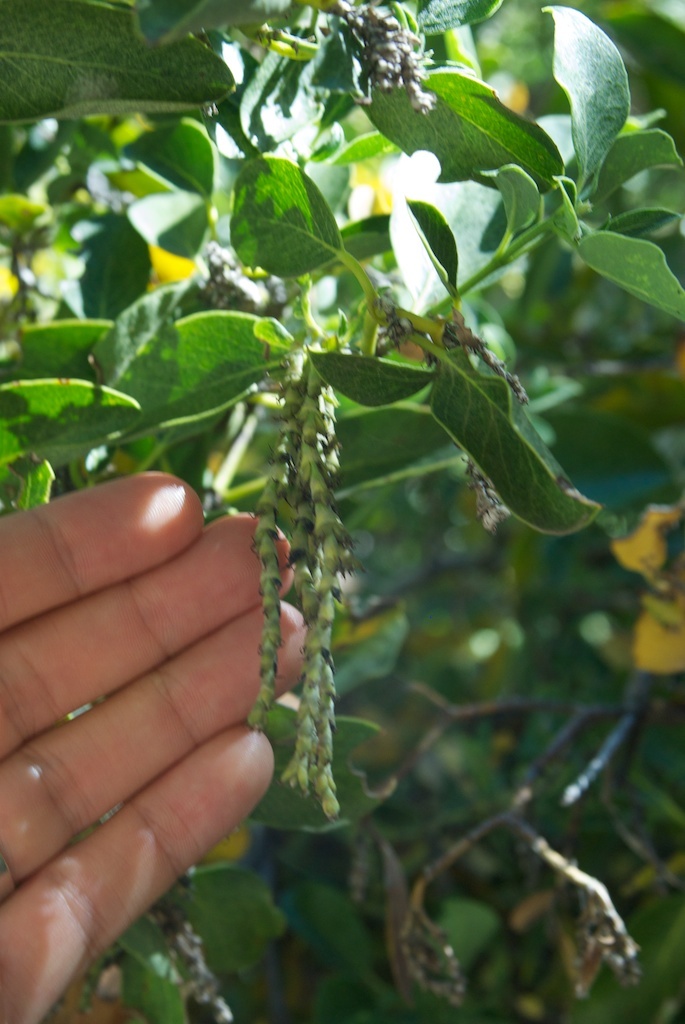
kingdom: Plantae
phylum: Tracheophyta
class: Magnoliopsida
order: Garryales
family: Garryaceae
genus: Garrya
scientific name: Garrya fremontii
